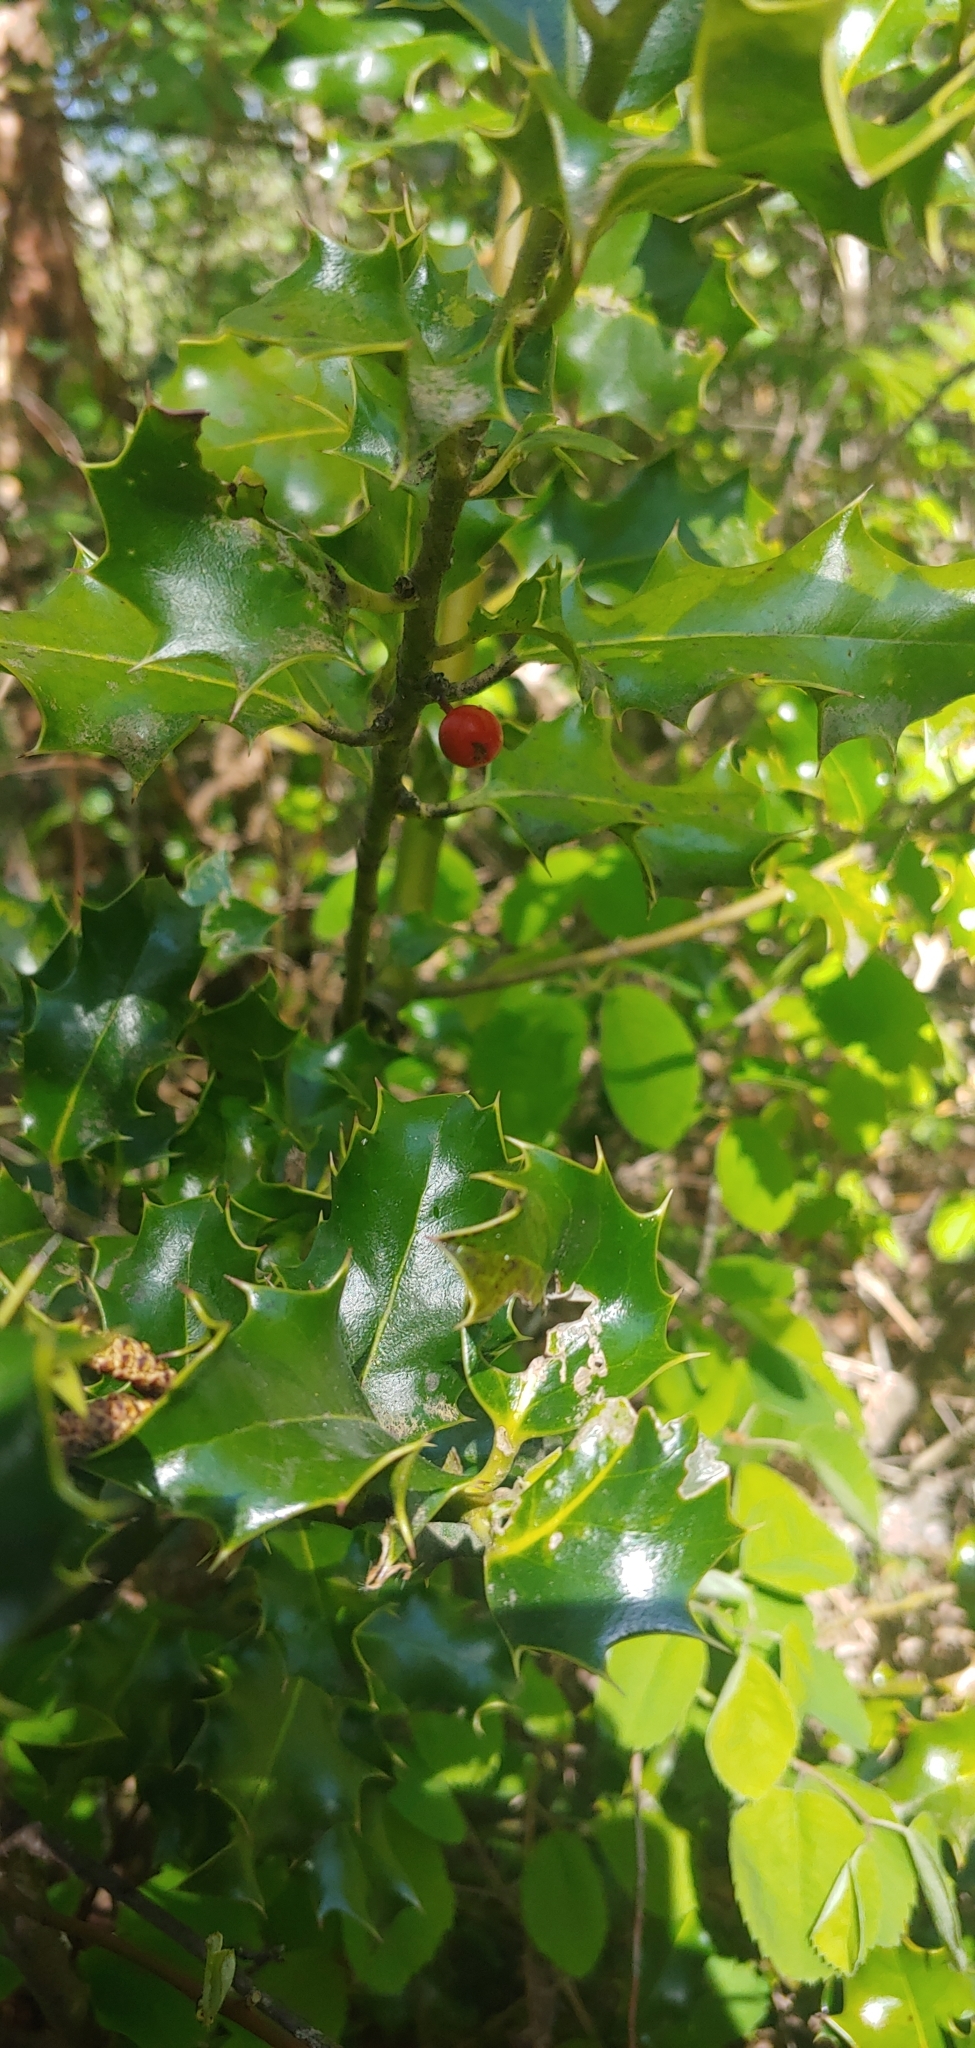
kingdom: Plantae
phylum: Tracheophyta
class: Magnoliopsida
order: Aquifoliales
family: Aquifoliaceae
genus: Ilex
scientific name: Ilex aquifolium
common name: English holly
